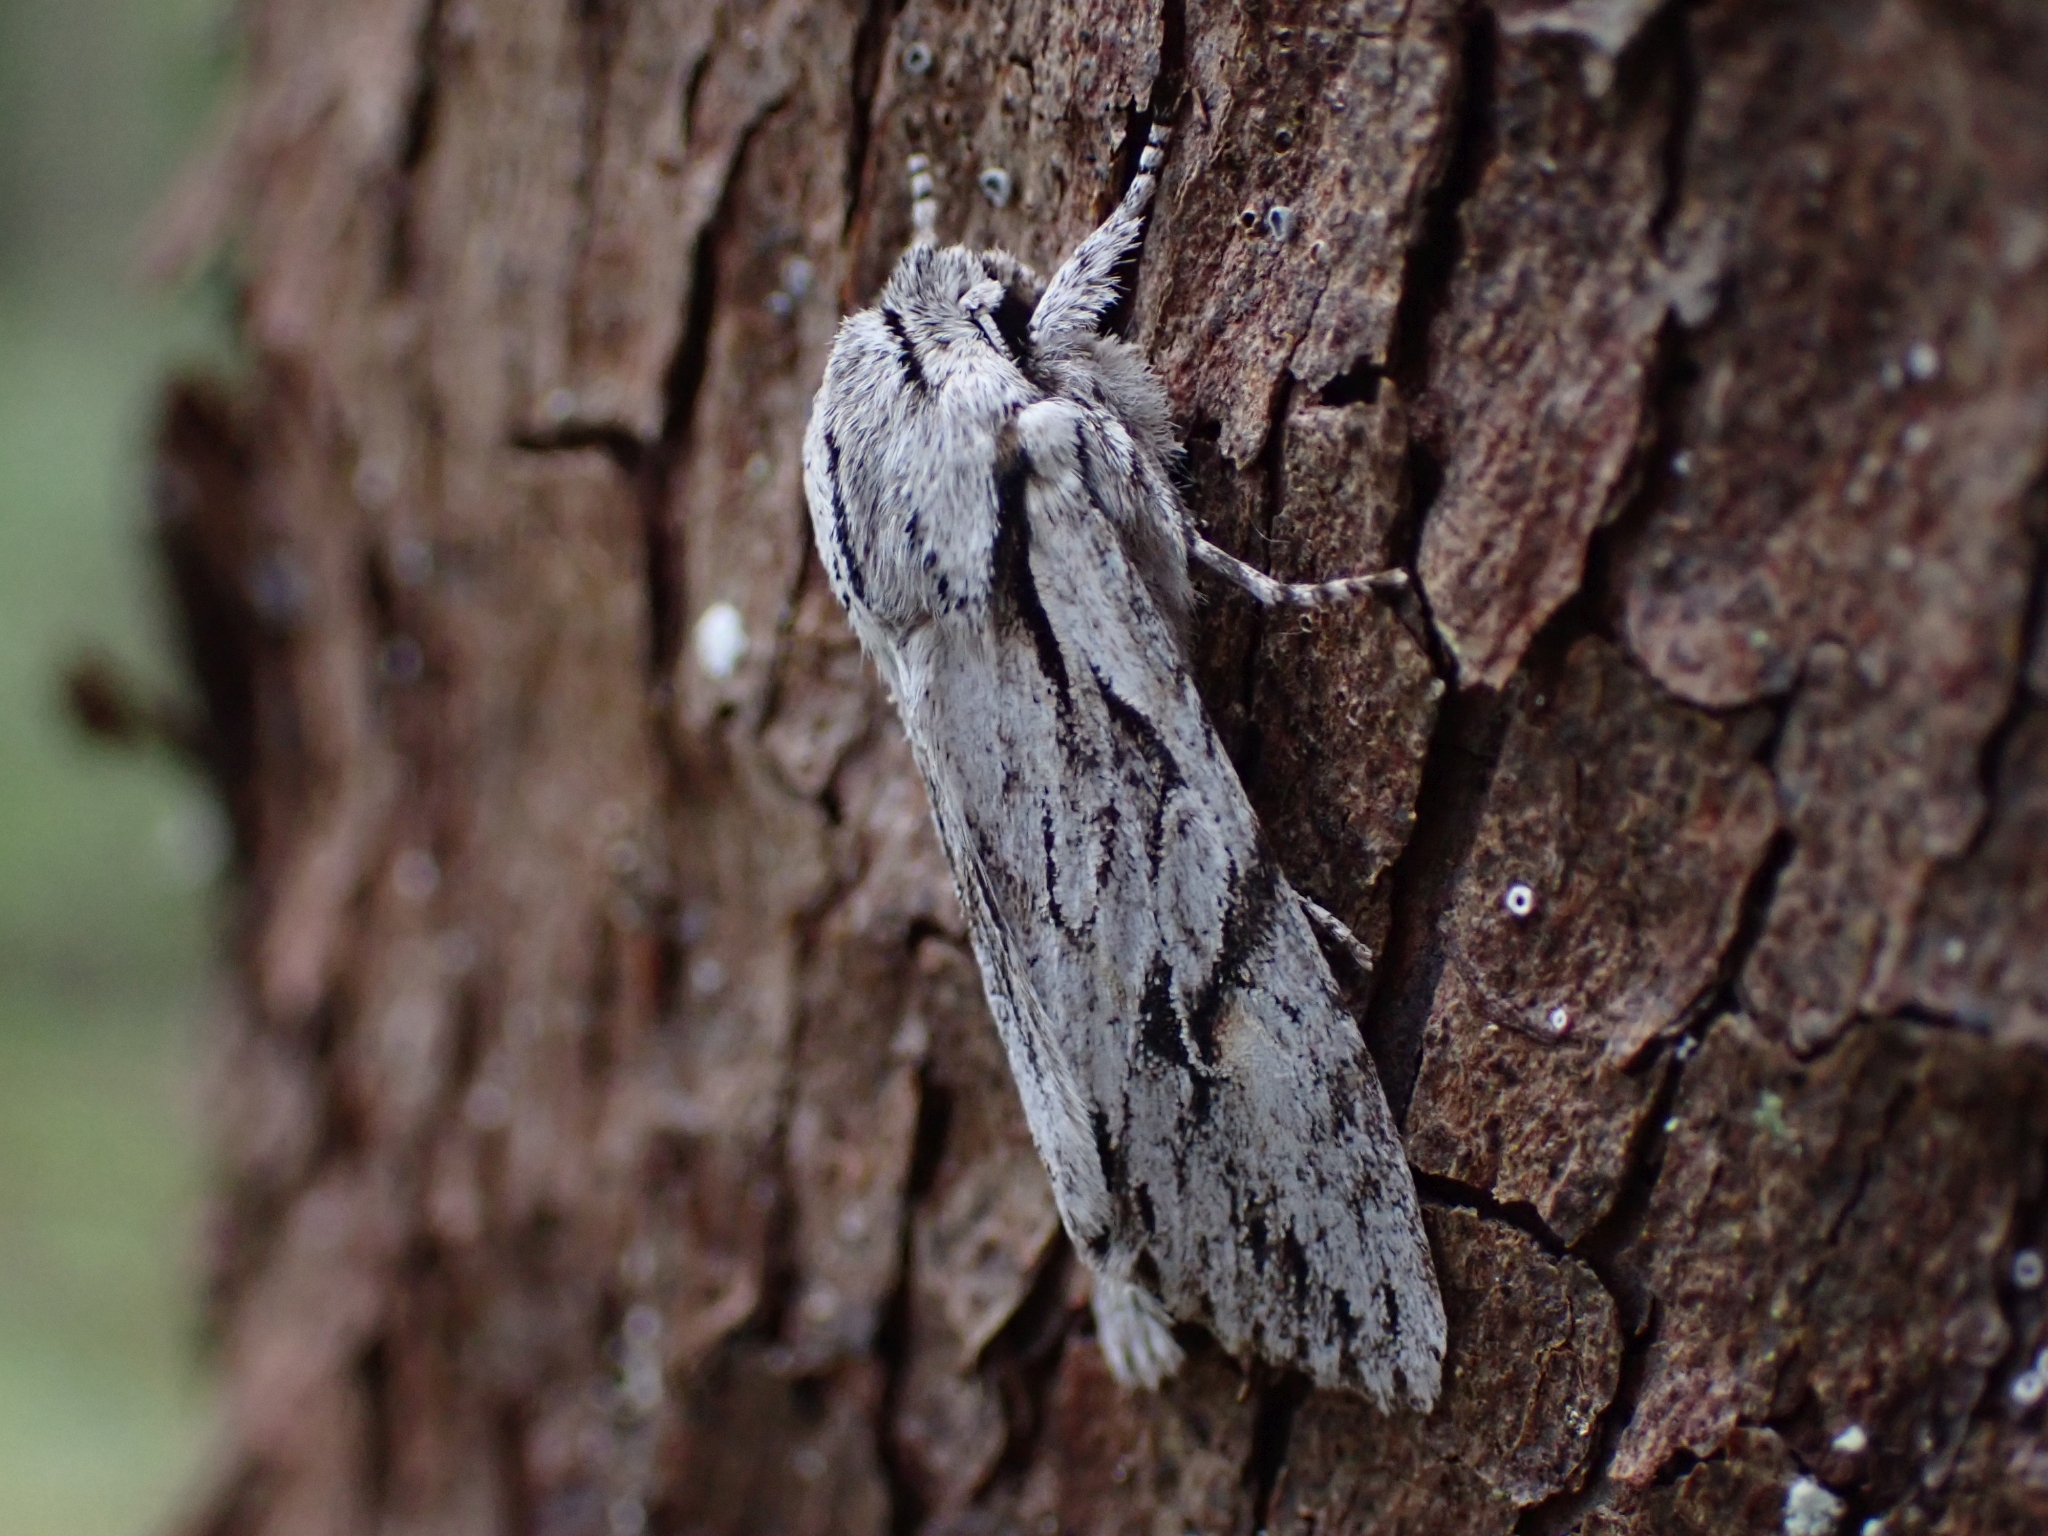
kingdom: Animalia
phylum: Arthropoda
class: Insecta
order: Lepidoptera
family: Noctuidae
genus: Egira
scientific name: Egira crucialis
